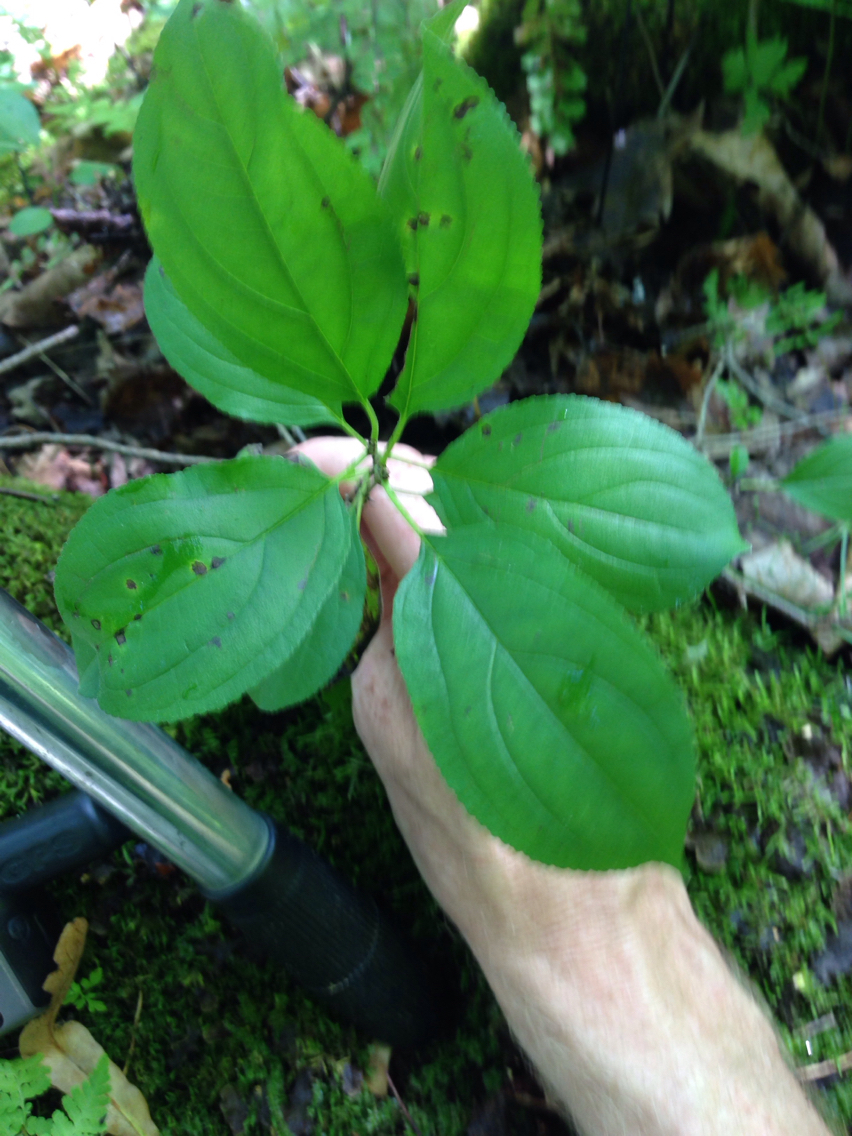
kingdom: Plantae
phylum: Tracheophyta
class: Magnoliopsida
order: Rosales
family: Rhamnaceae
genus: Rhamnus
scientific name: Rhamnus cathartica
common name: Common buckthorn
